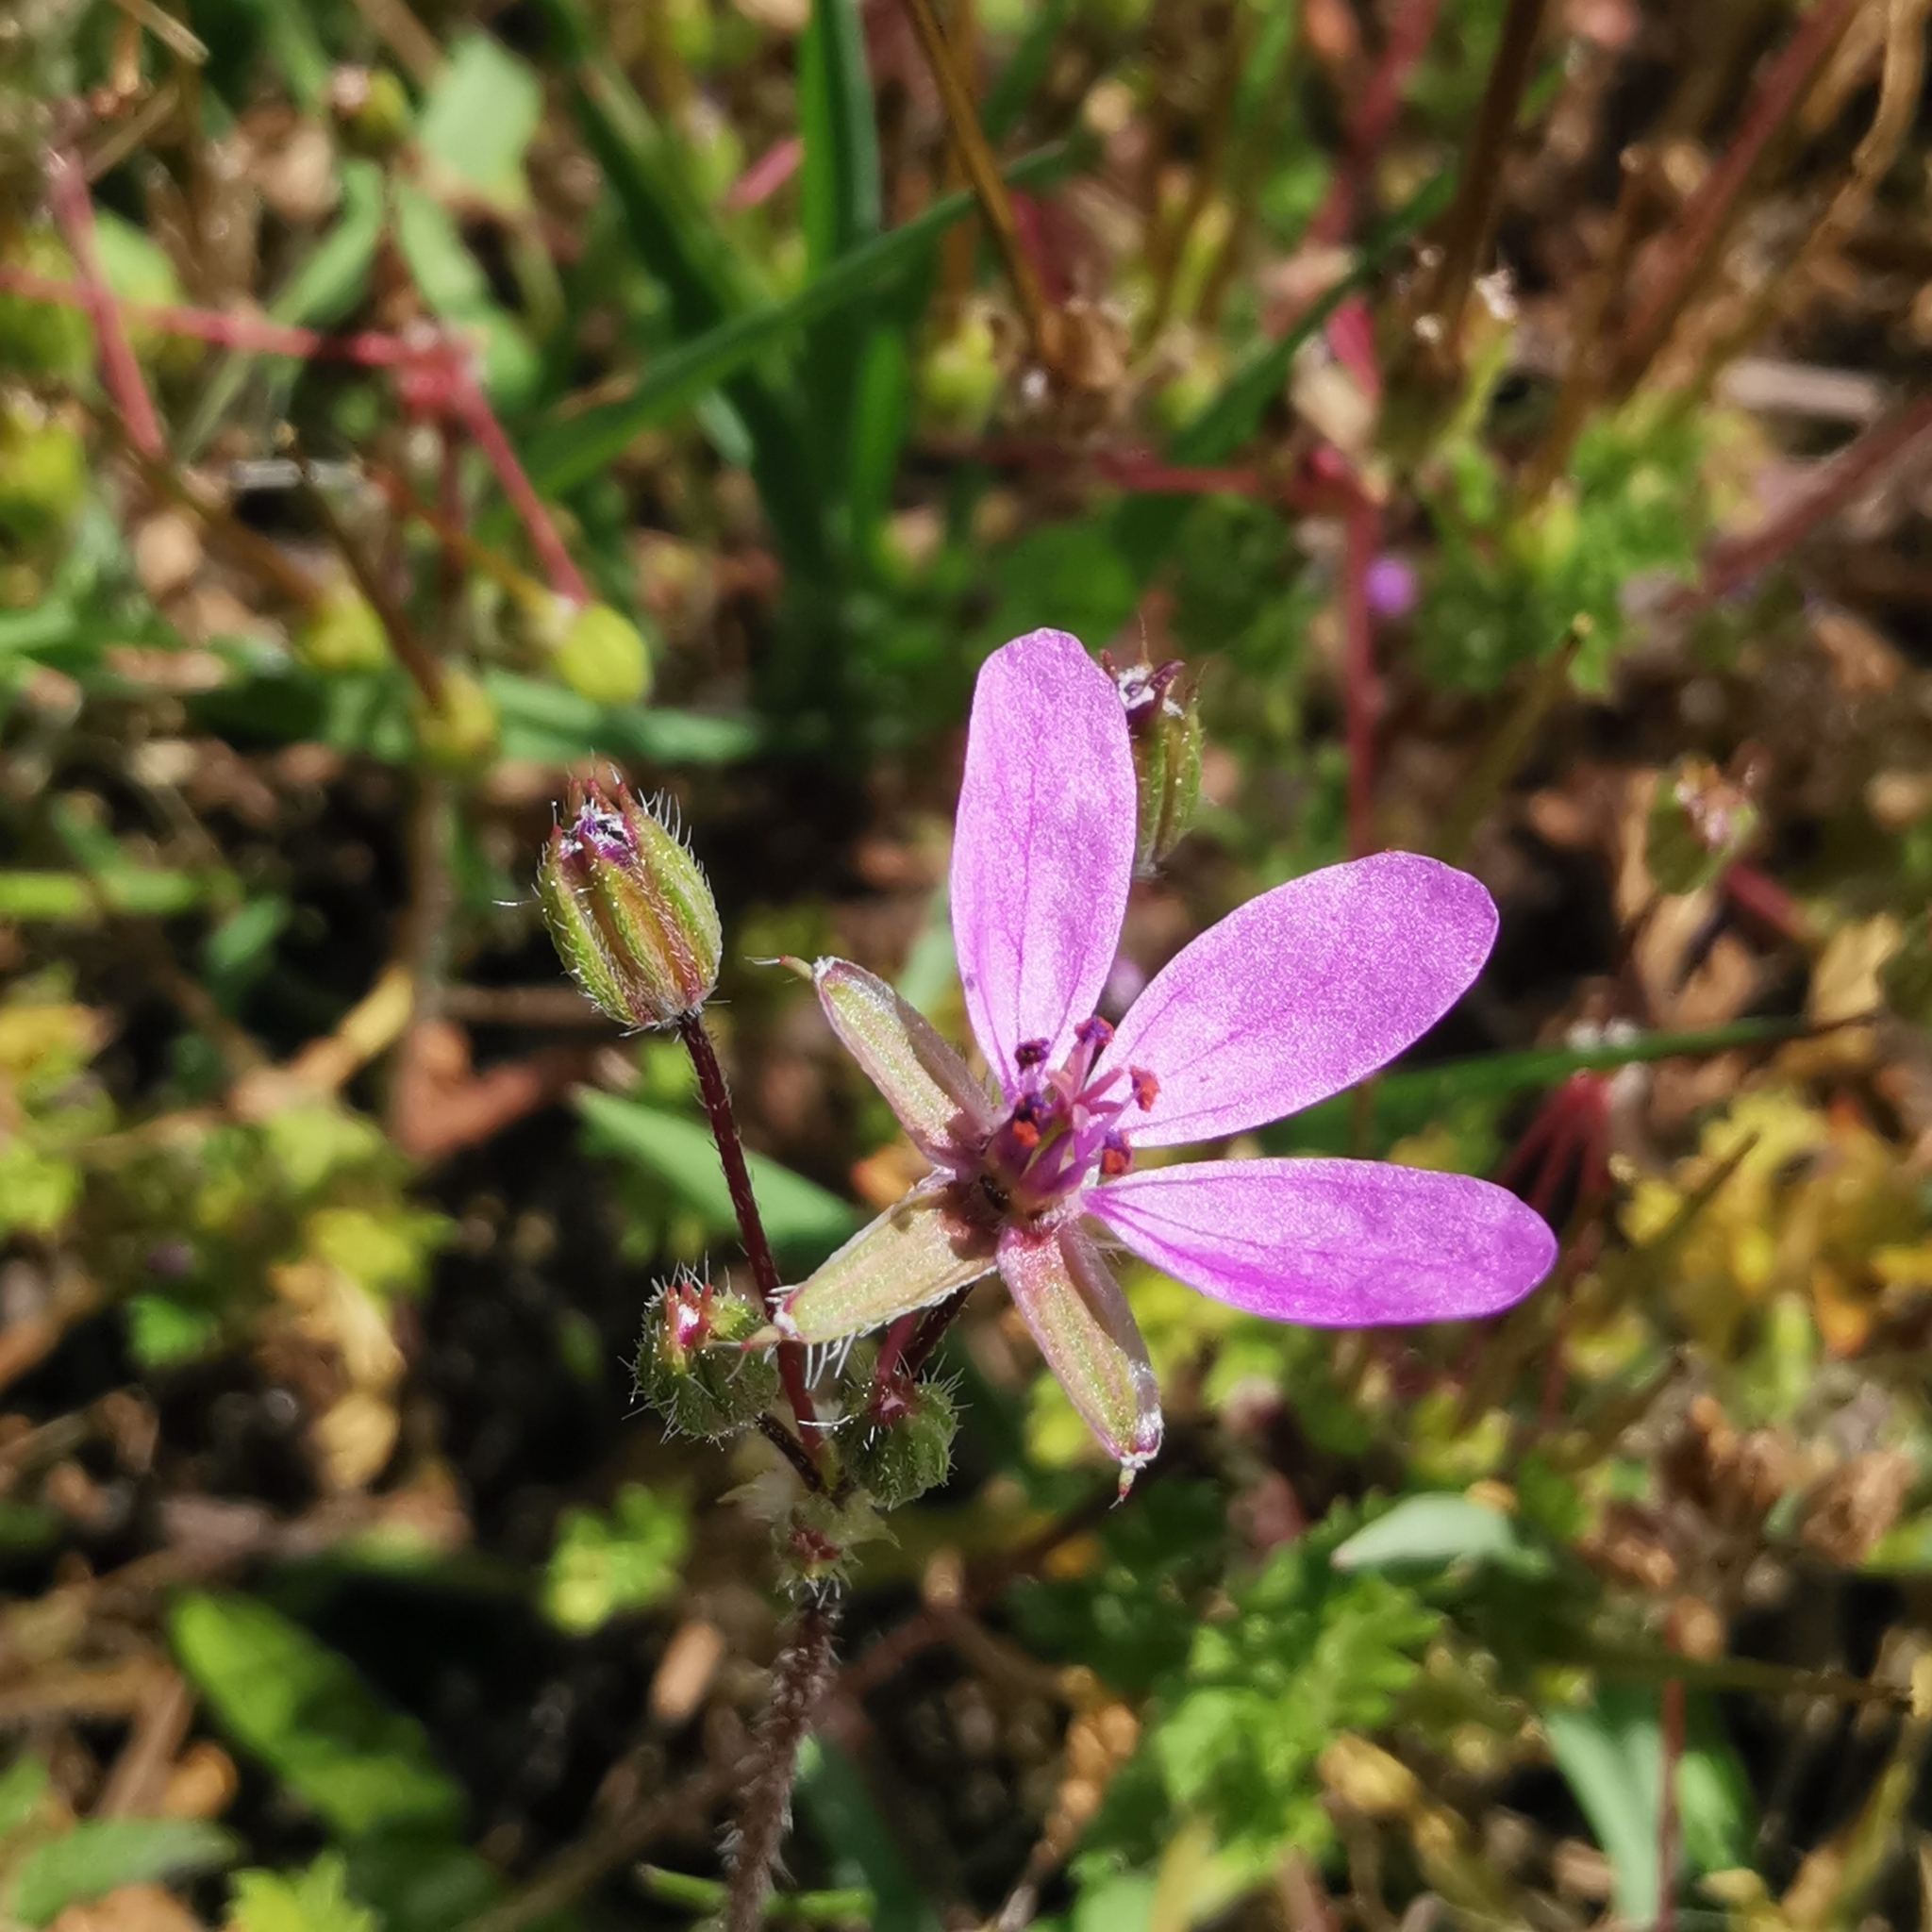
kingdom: Plantae
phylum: Tracheophyta
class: Magnoliopsida
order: Geraniales
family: Geraniaceae
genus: Erodium
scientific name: Erodium cicutarium
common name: Common stork's-bill
